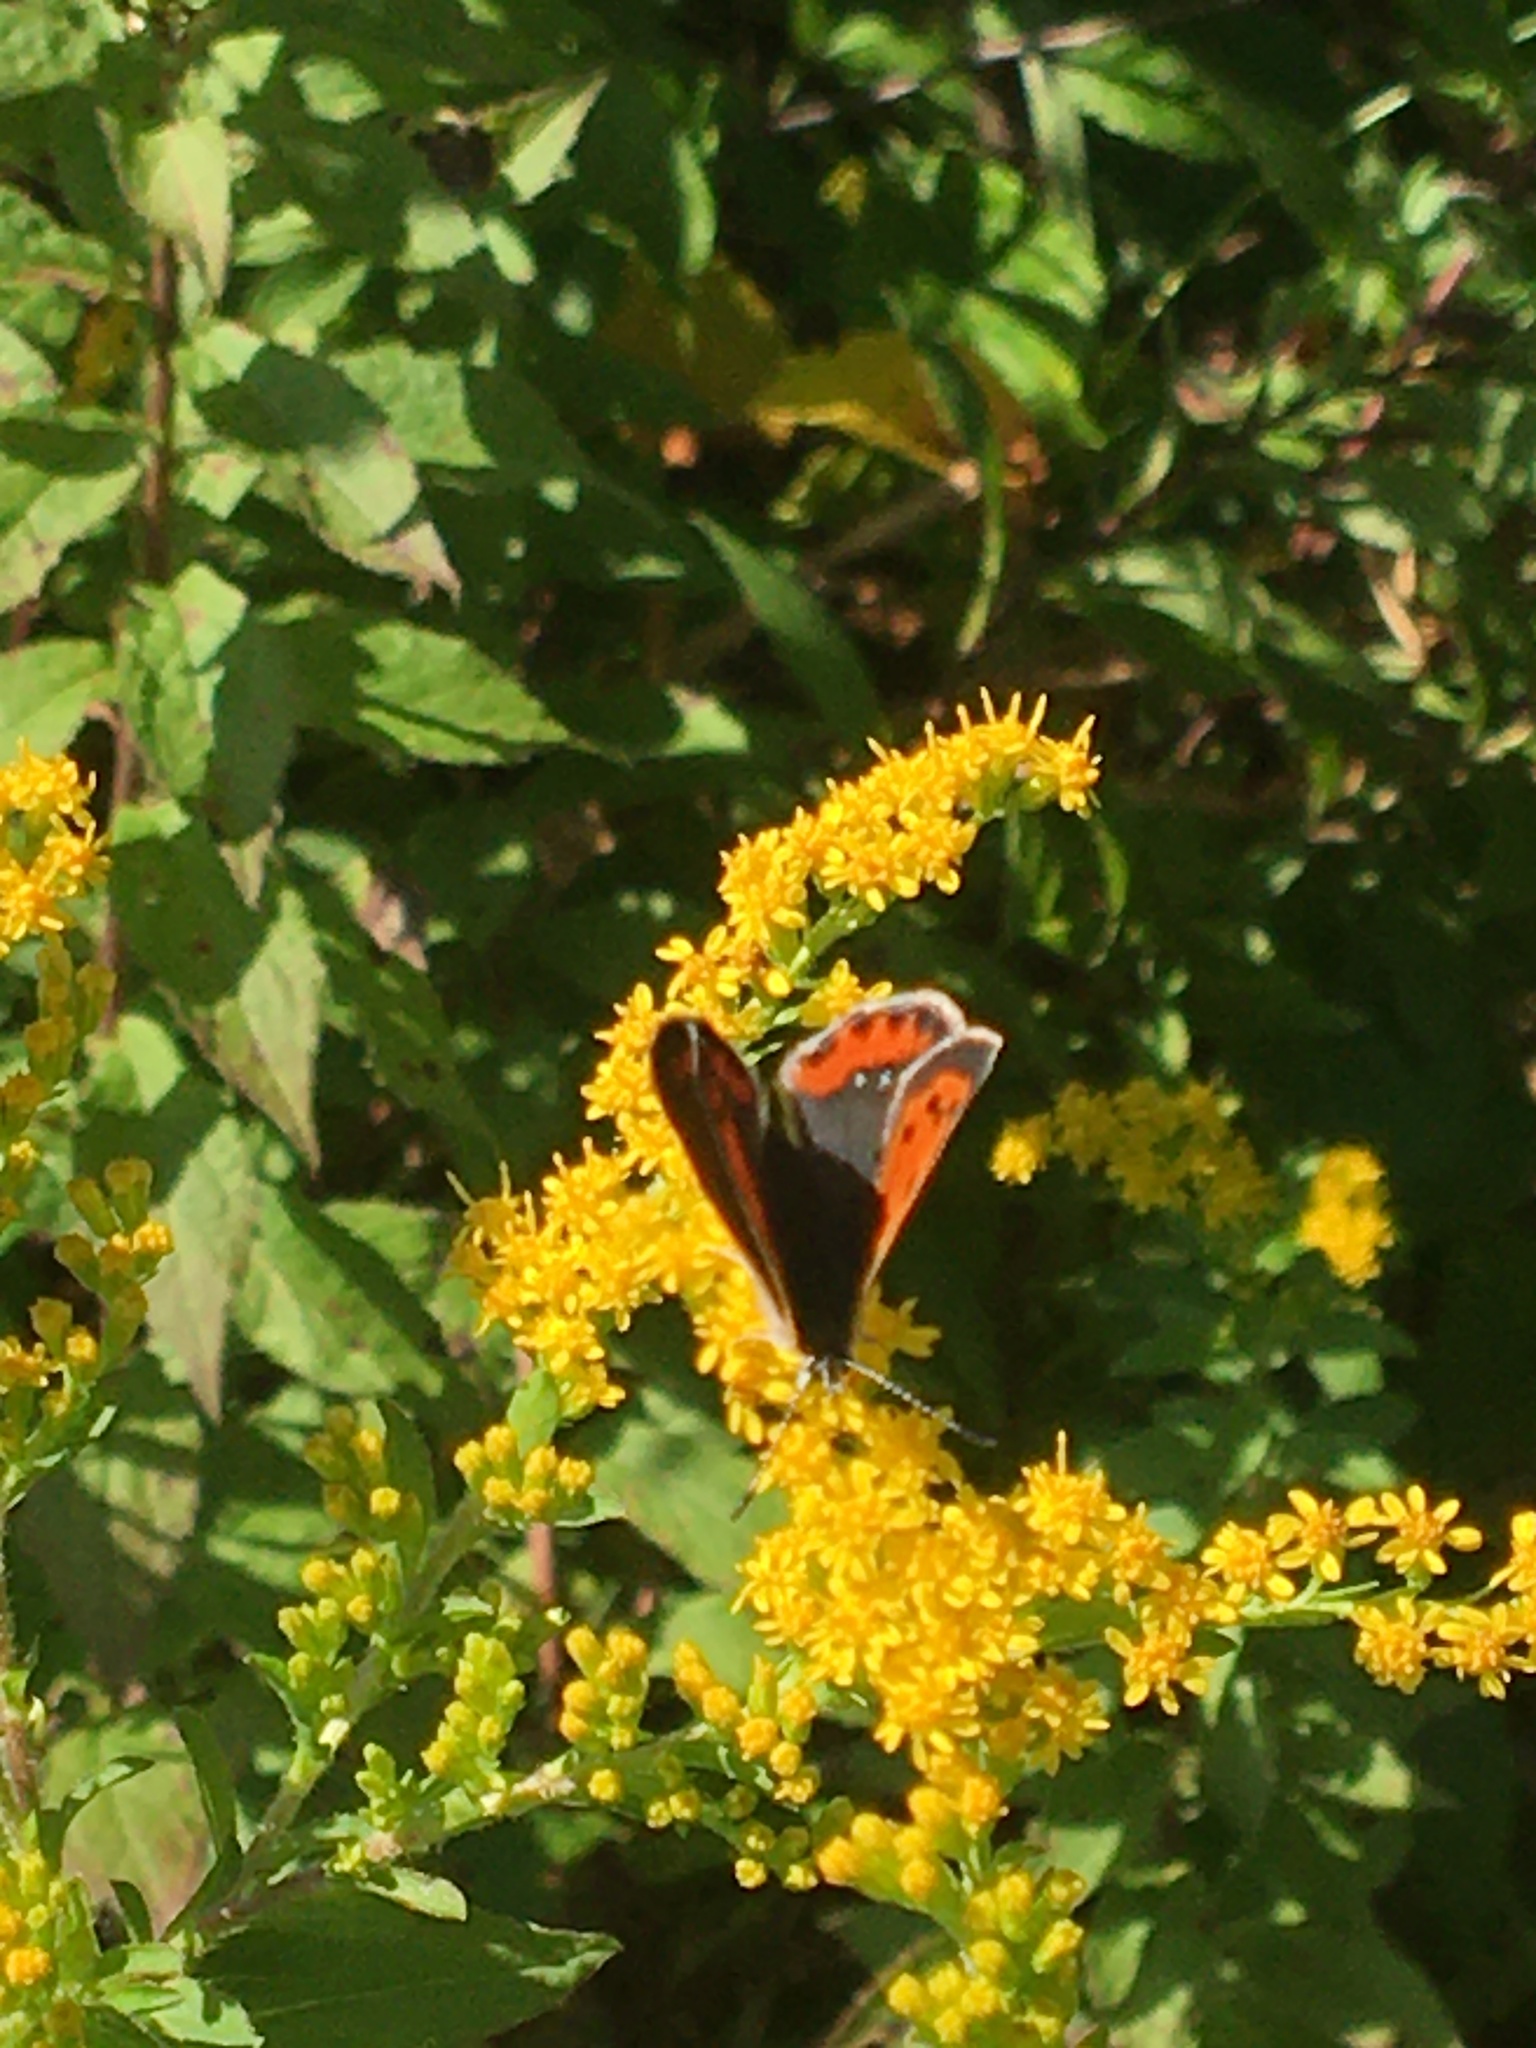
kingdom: Animalia
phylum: Arthropoda
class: Insecta
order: Lepidoptera
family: Lycaenidae
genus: Lycaena
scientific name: Lycaena hypophlaeas
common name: American copper
